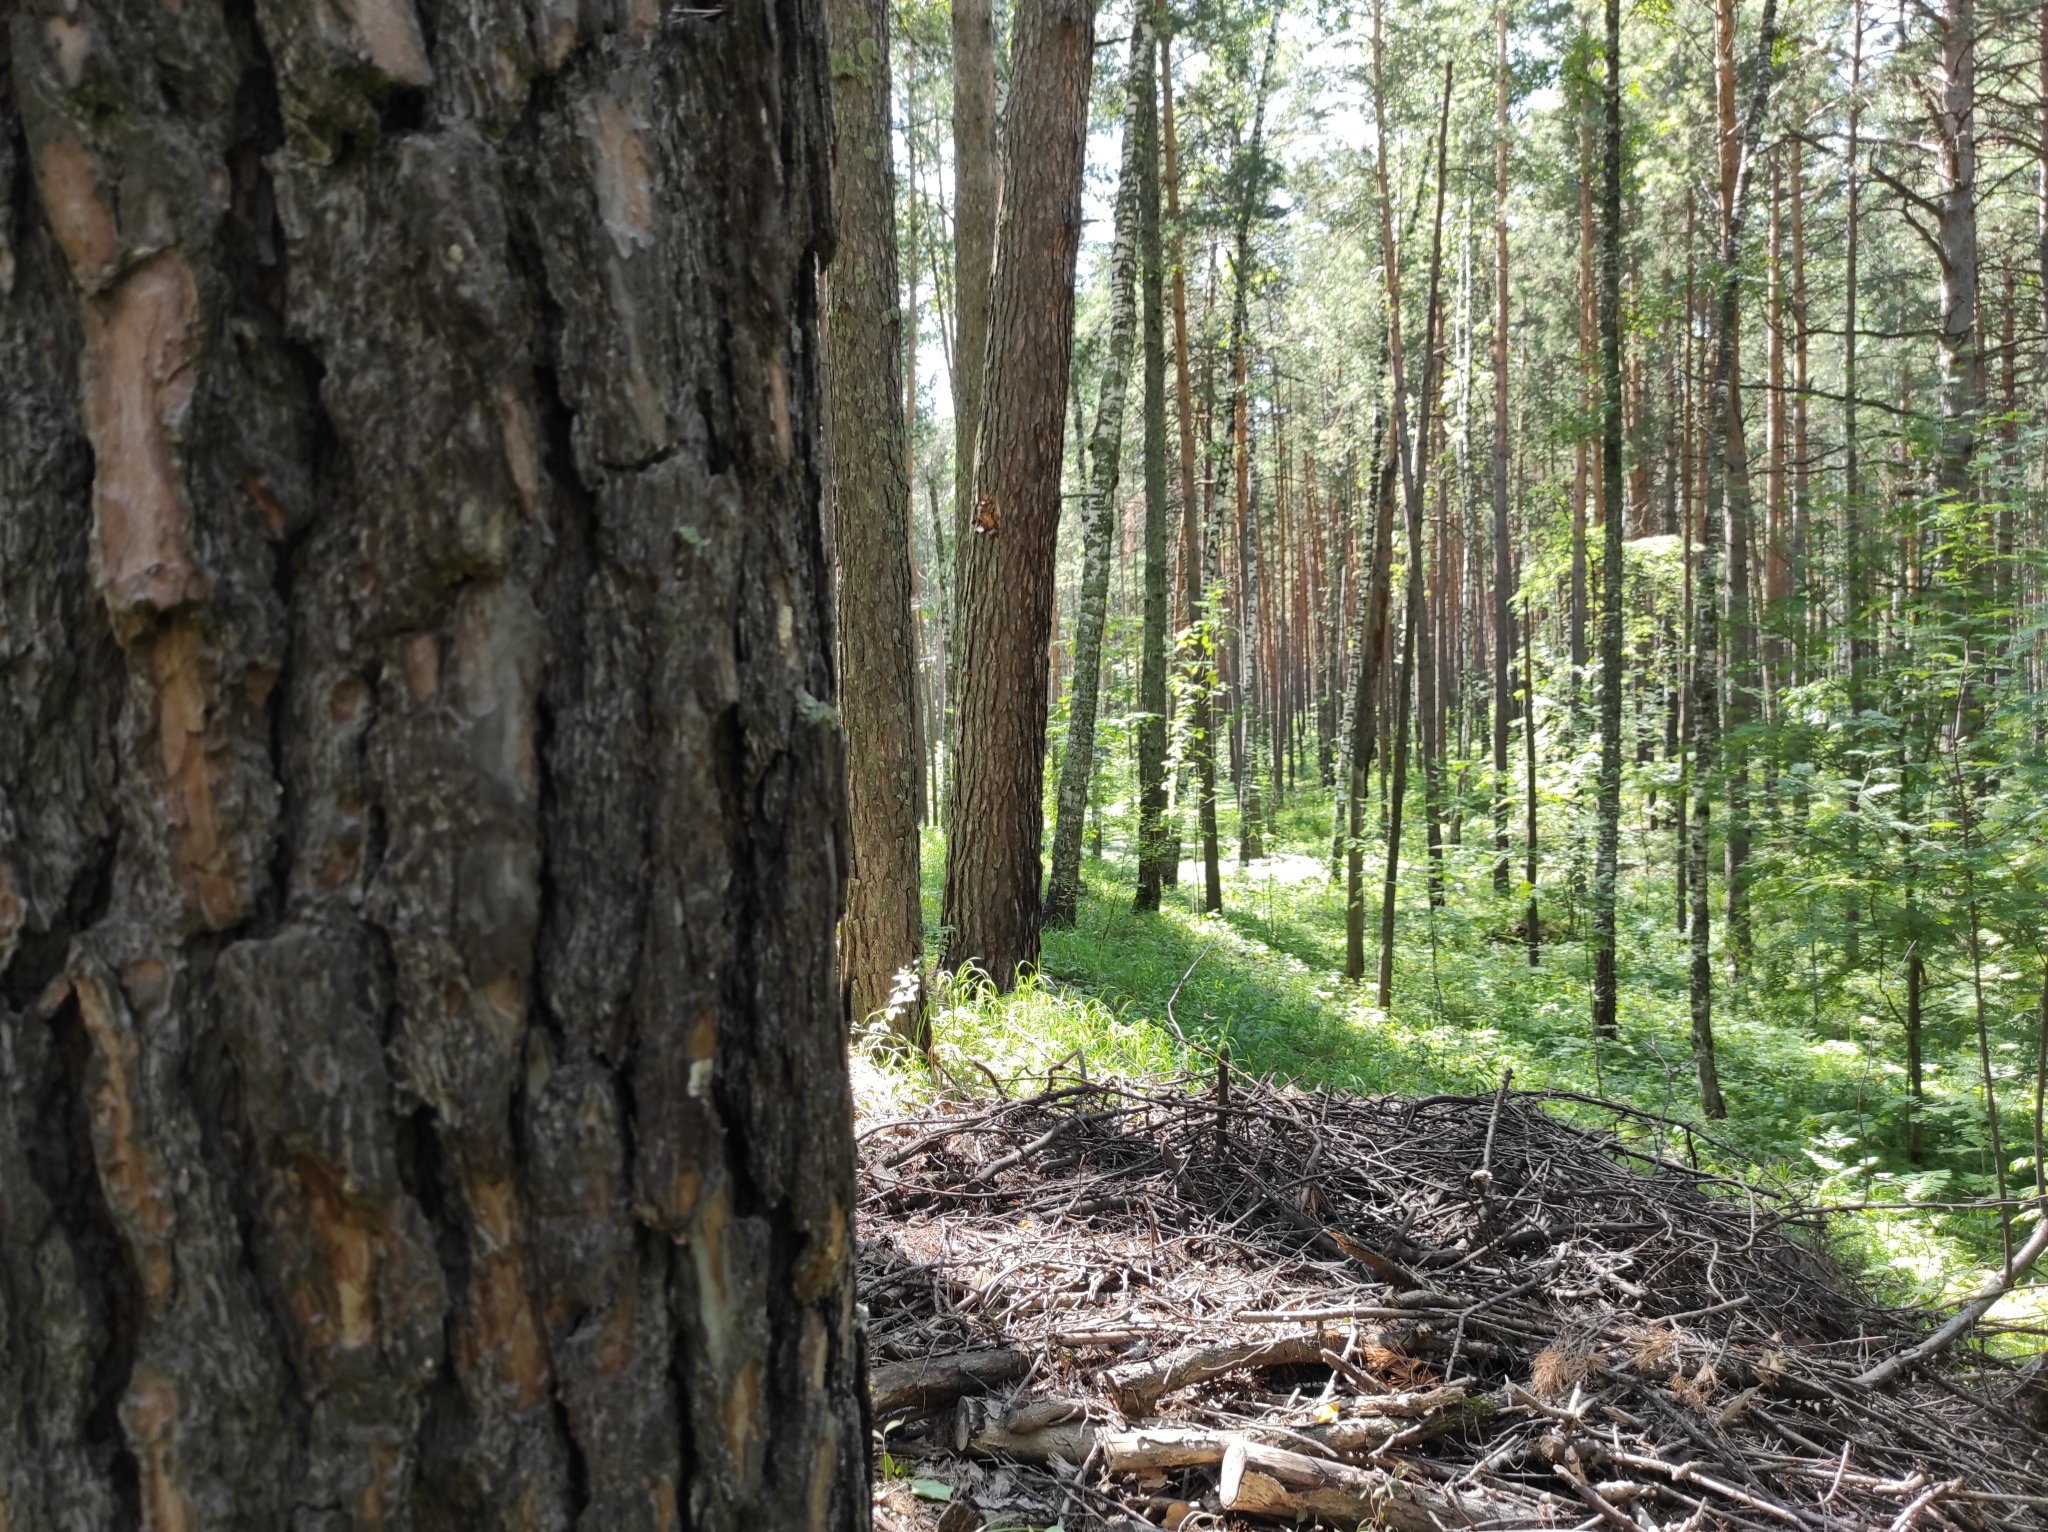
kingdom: Plantae
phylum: Tracheophyta
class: Pinopsida
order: Pinales
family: Pinaceae
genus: Pinus
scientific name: Pinus sylvestris
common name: Scots pine
